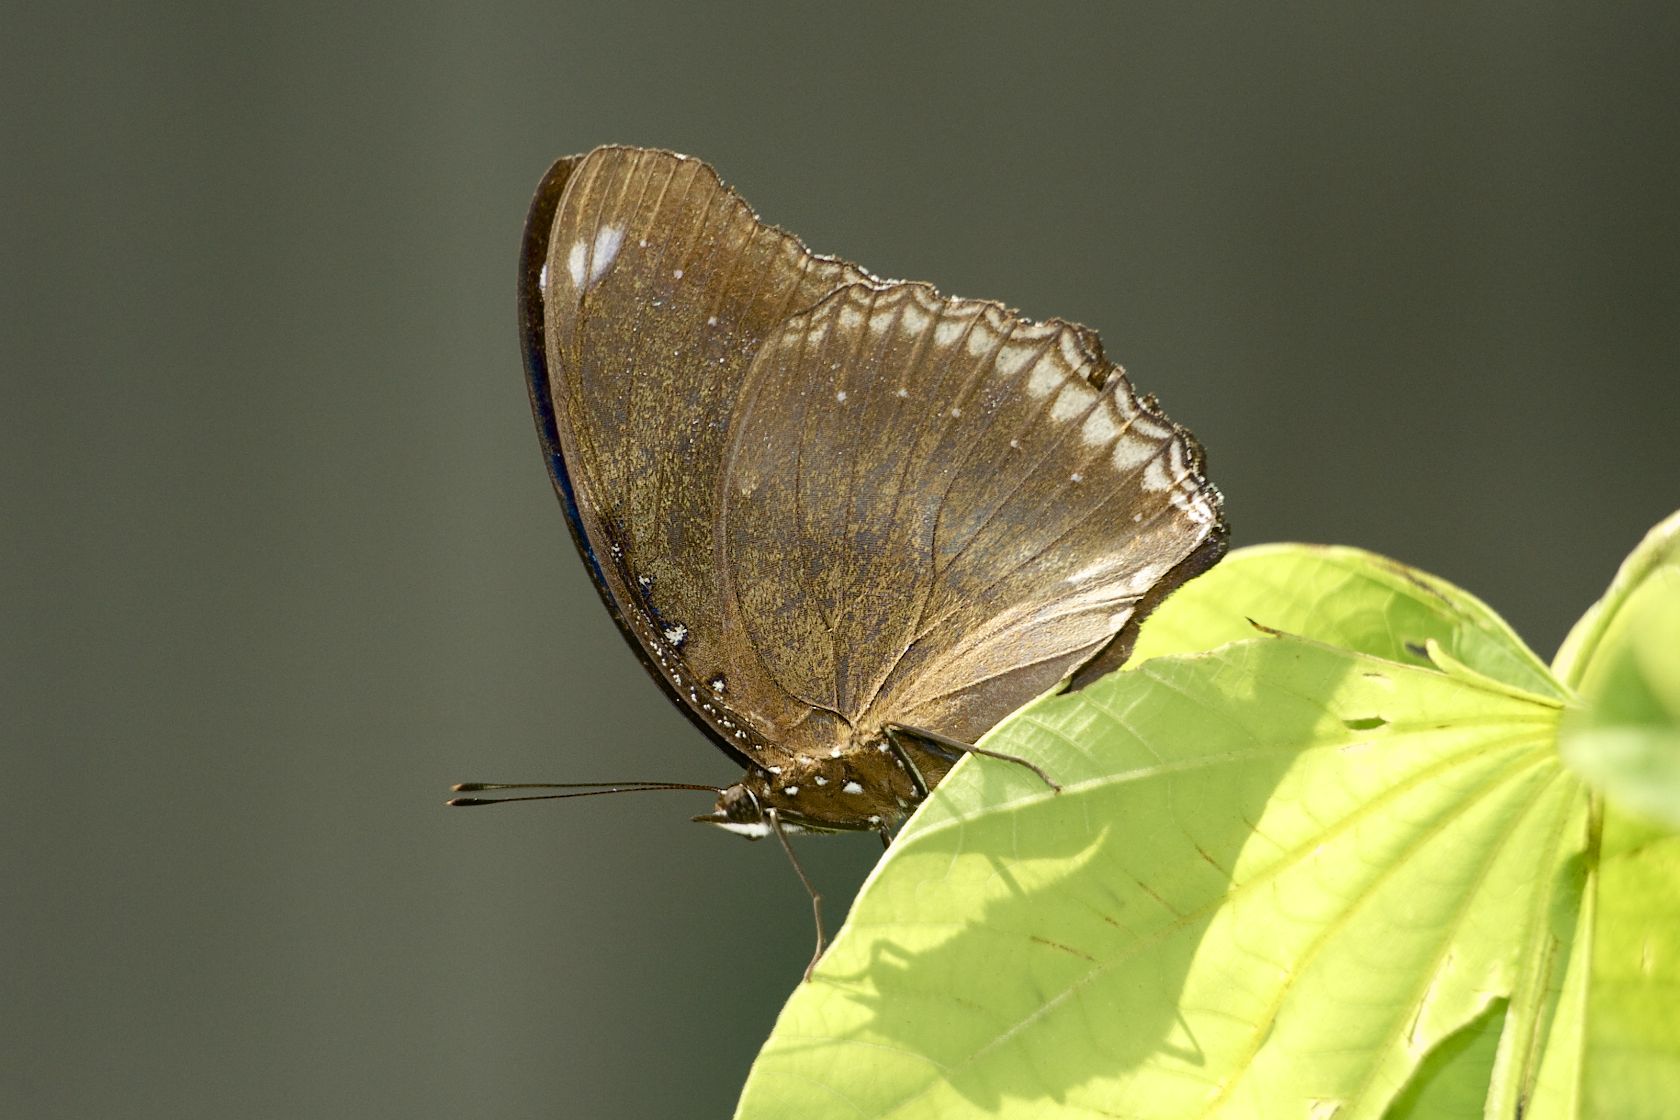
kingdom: Animalia
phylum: Arthropoda
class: Insecta
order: Lepidoptera
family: Nymphalidae
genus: Hypolimnas
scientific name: Hypolimnas bolina
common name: Great eggfly
